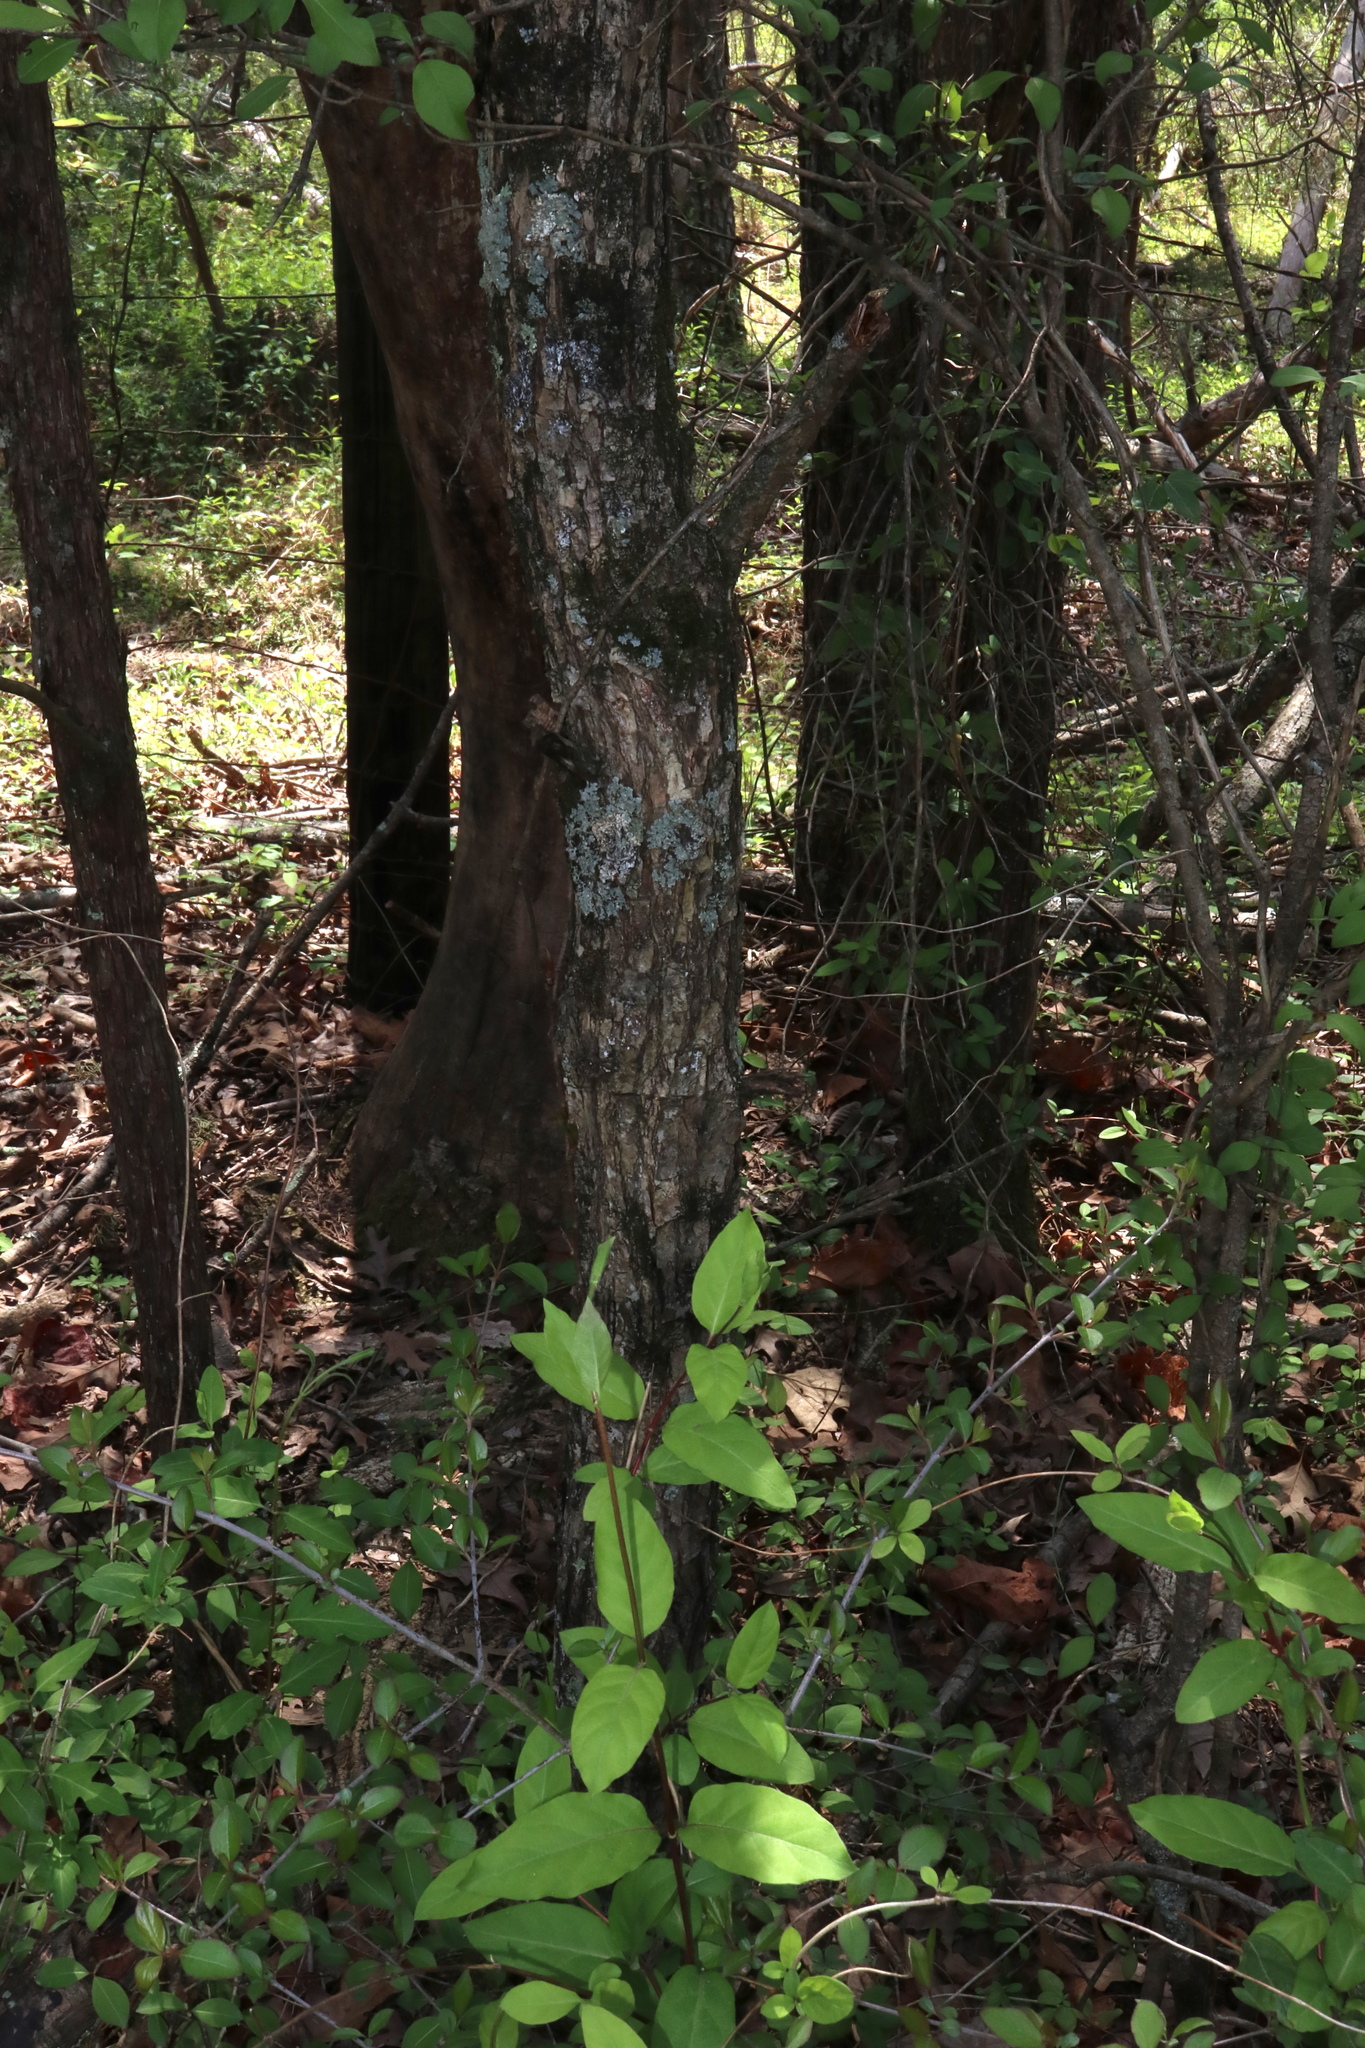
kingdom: Plantae
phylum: Tracheophyta
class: Magnoliopsida
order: Fagales
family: Fagaceae
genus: Quercus
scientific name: Quercus bicolor
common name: Swamp white oak
